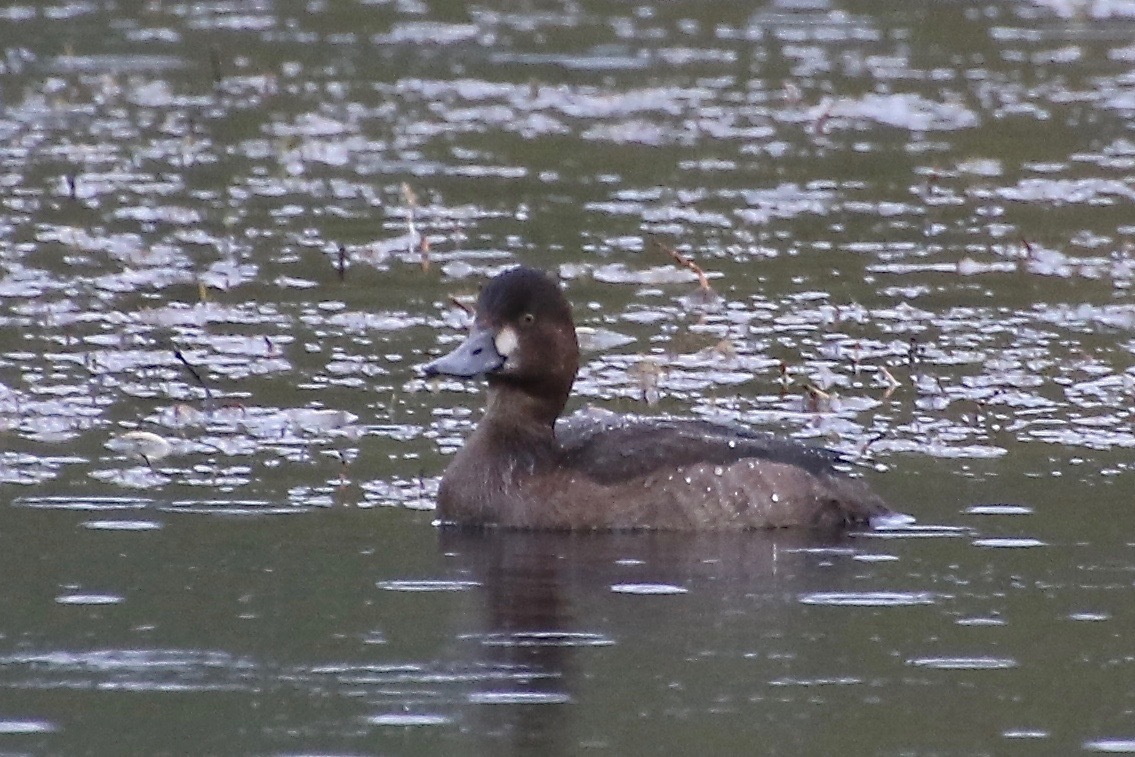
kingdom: Animalia
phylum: Chordata
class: Aves
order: Anseriformes
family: Anatidae
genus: Aythya
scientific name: Aythya affinis
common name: Lesser scaup
